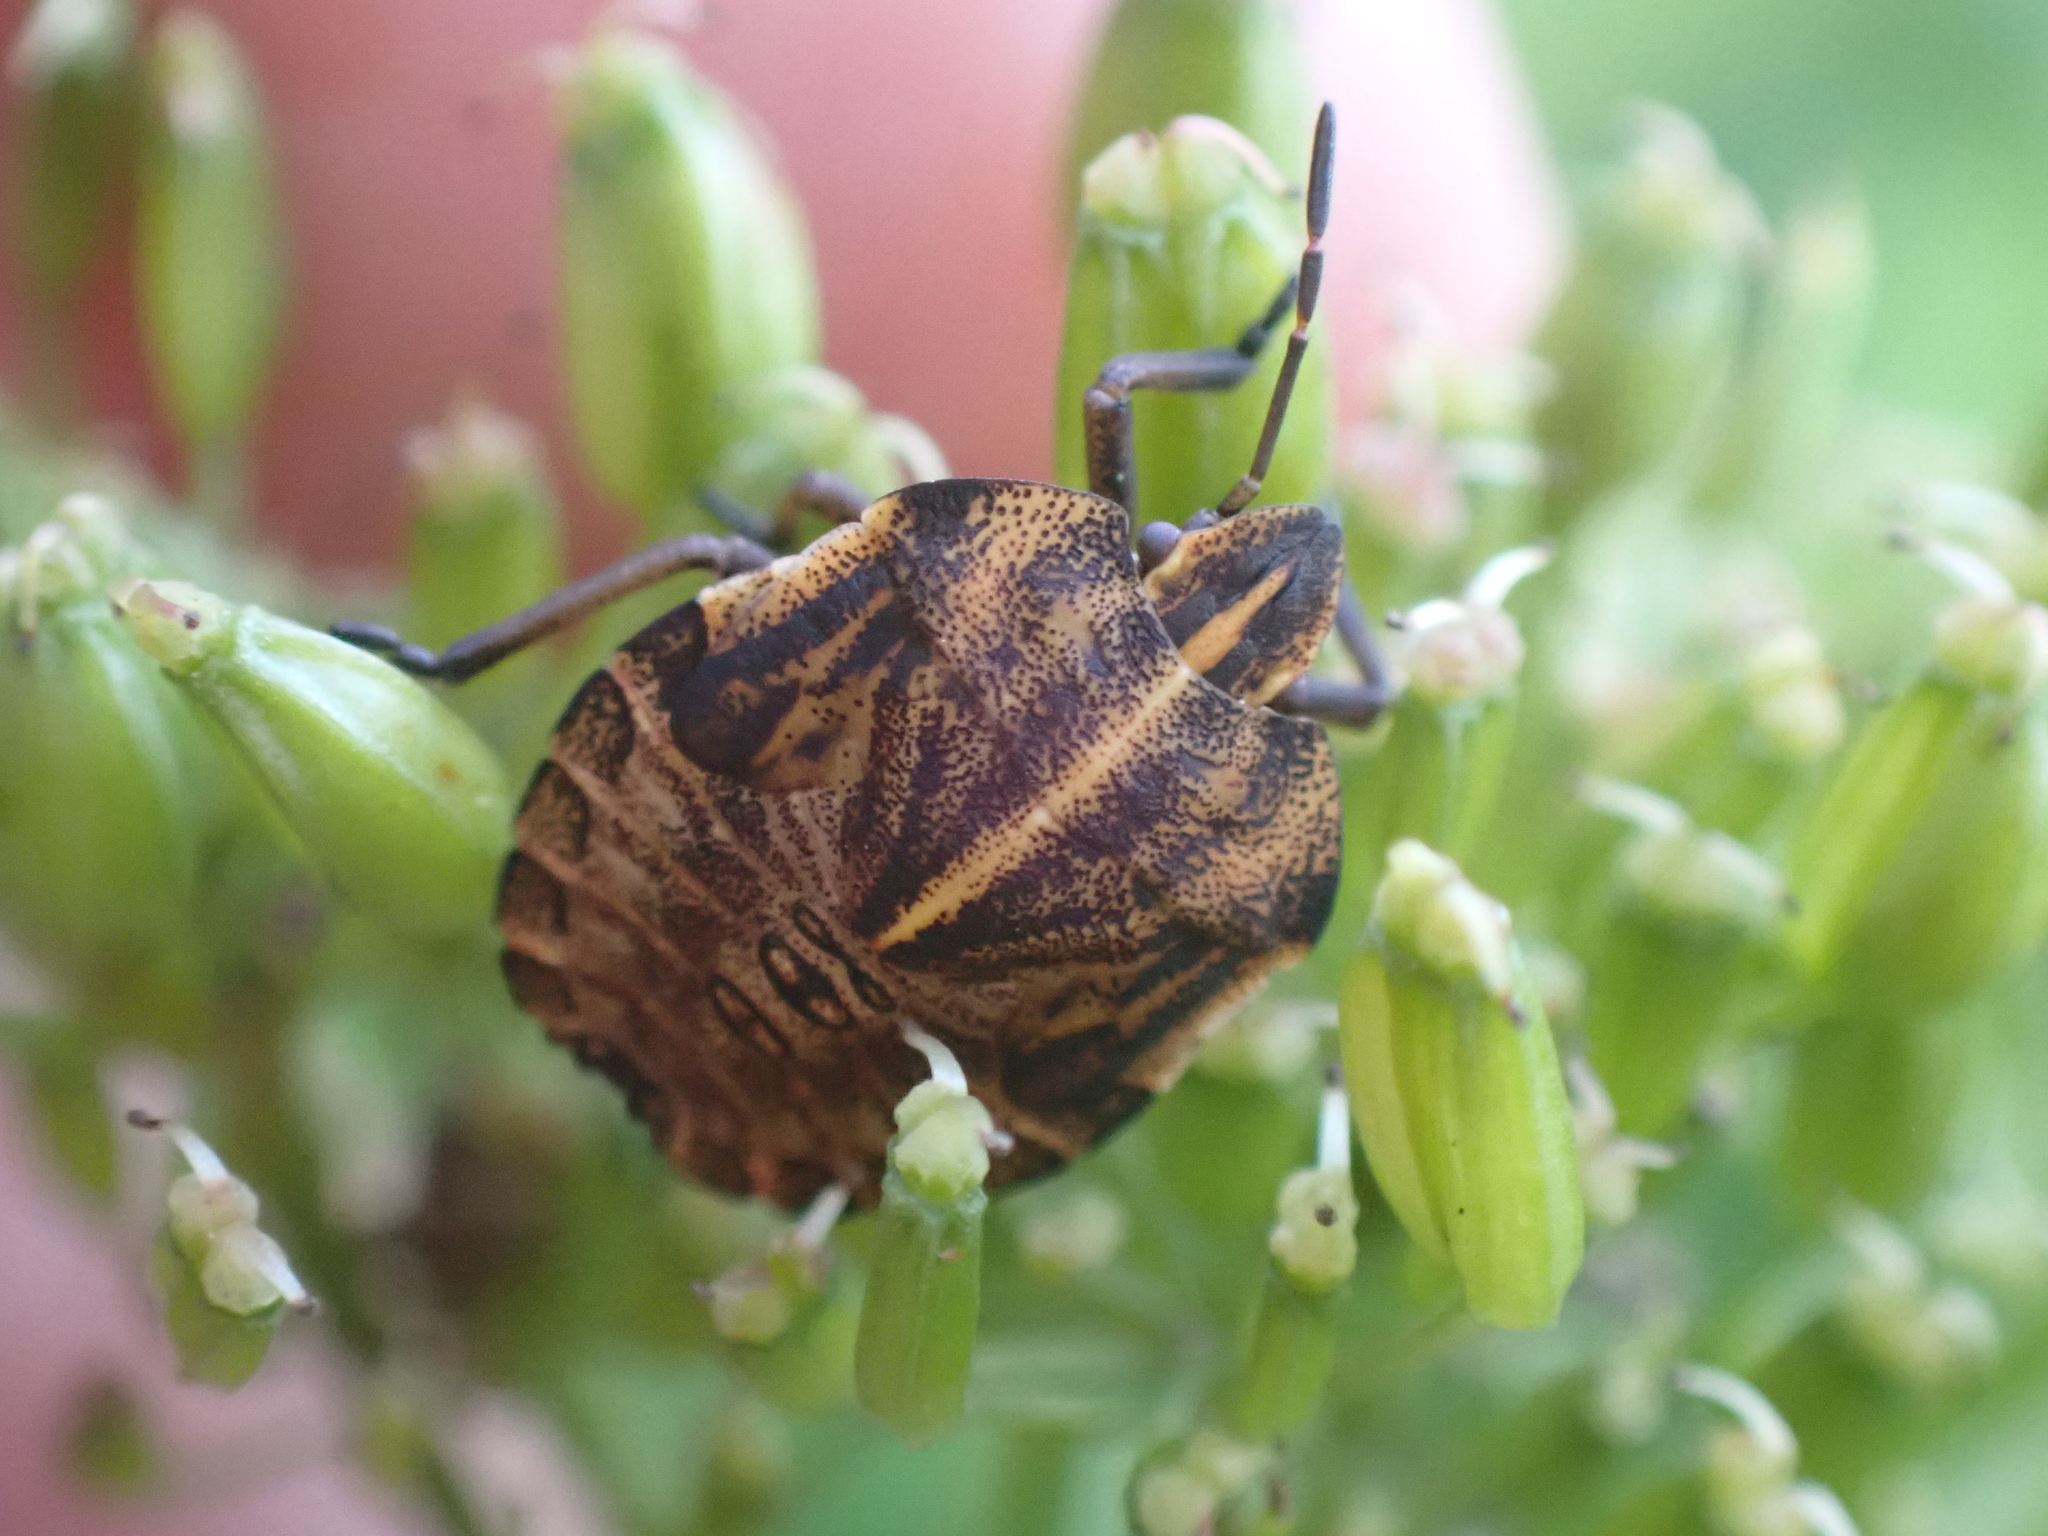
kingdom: Animalia
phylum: Arthropoda
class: Insecta
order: Hemiptera
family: Pentatomidae
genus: Graphosoma
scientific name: Graphosoma italicum
